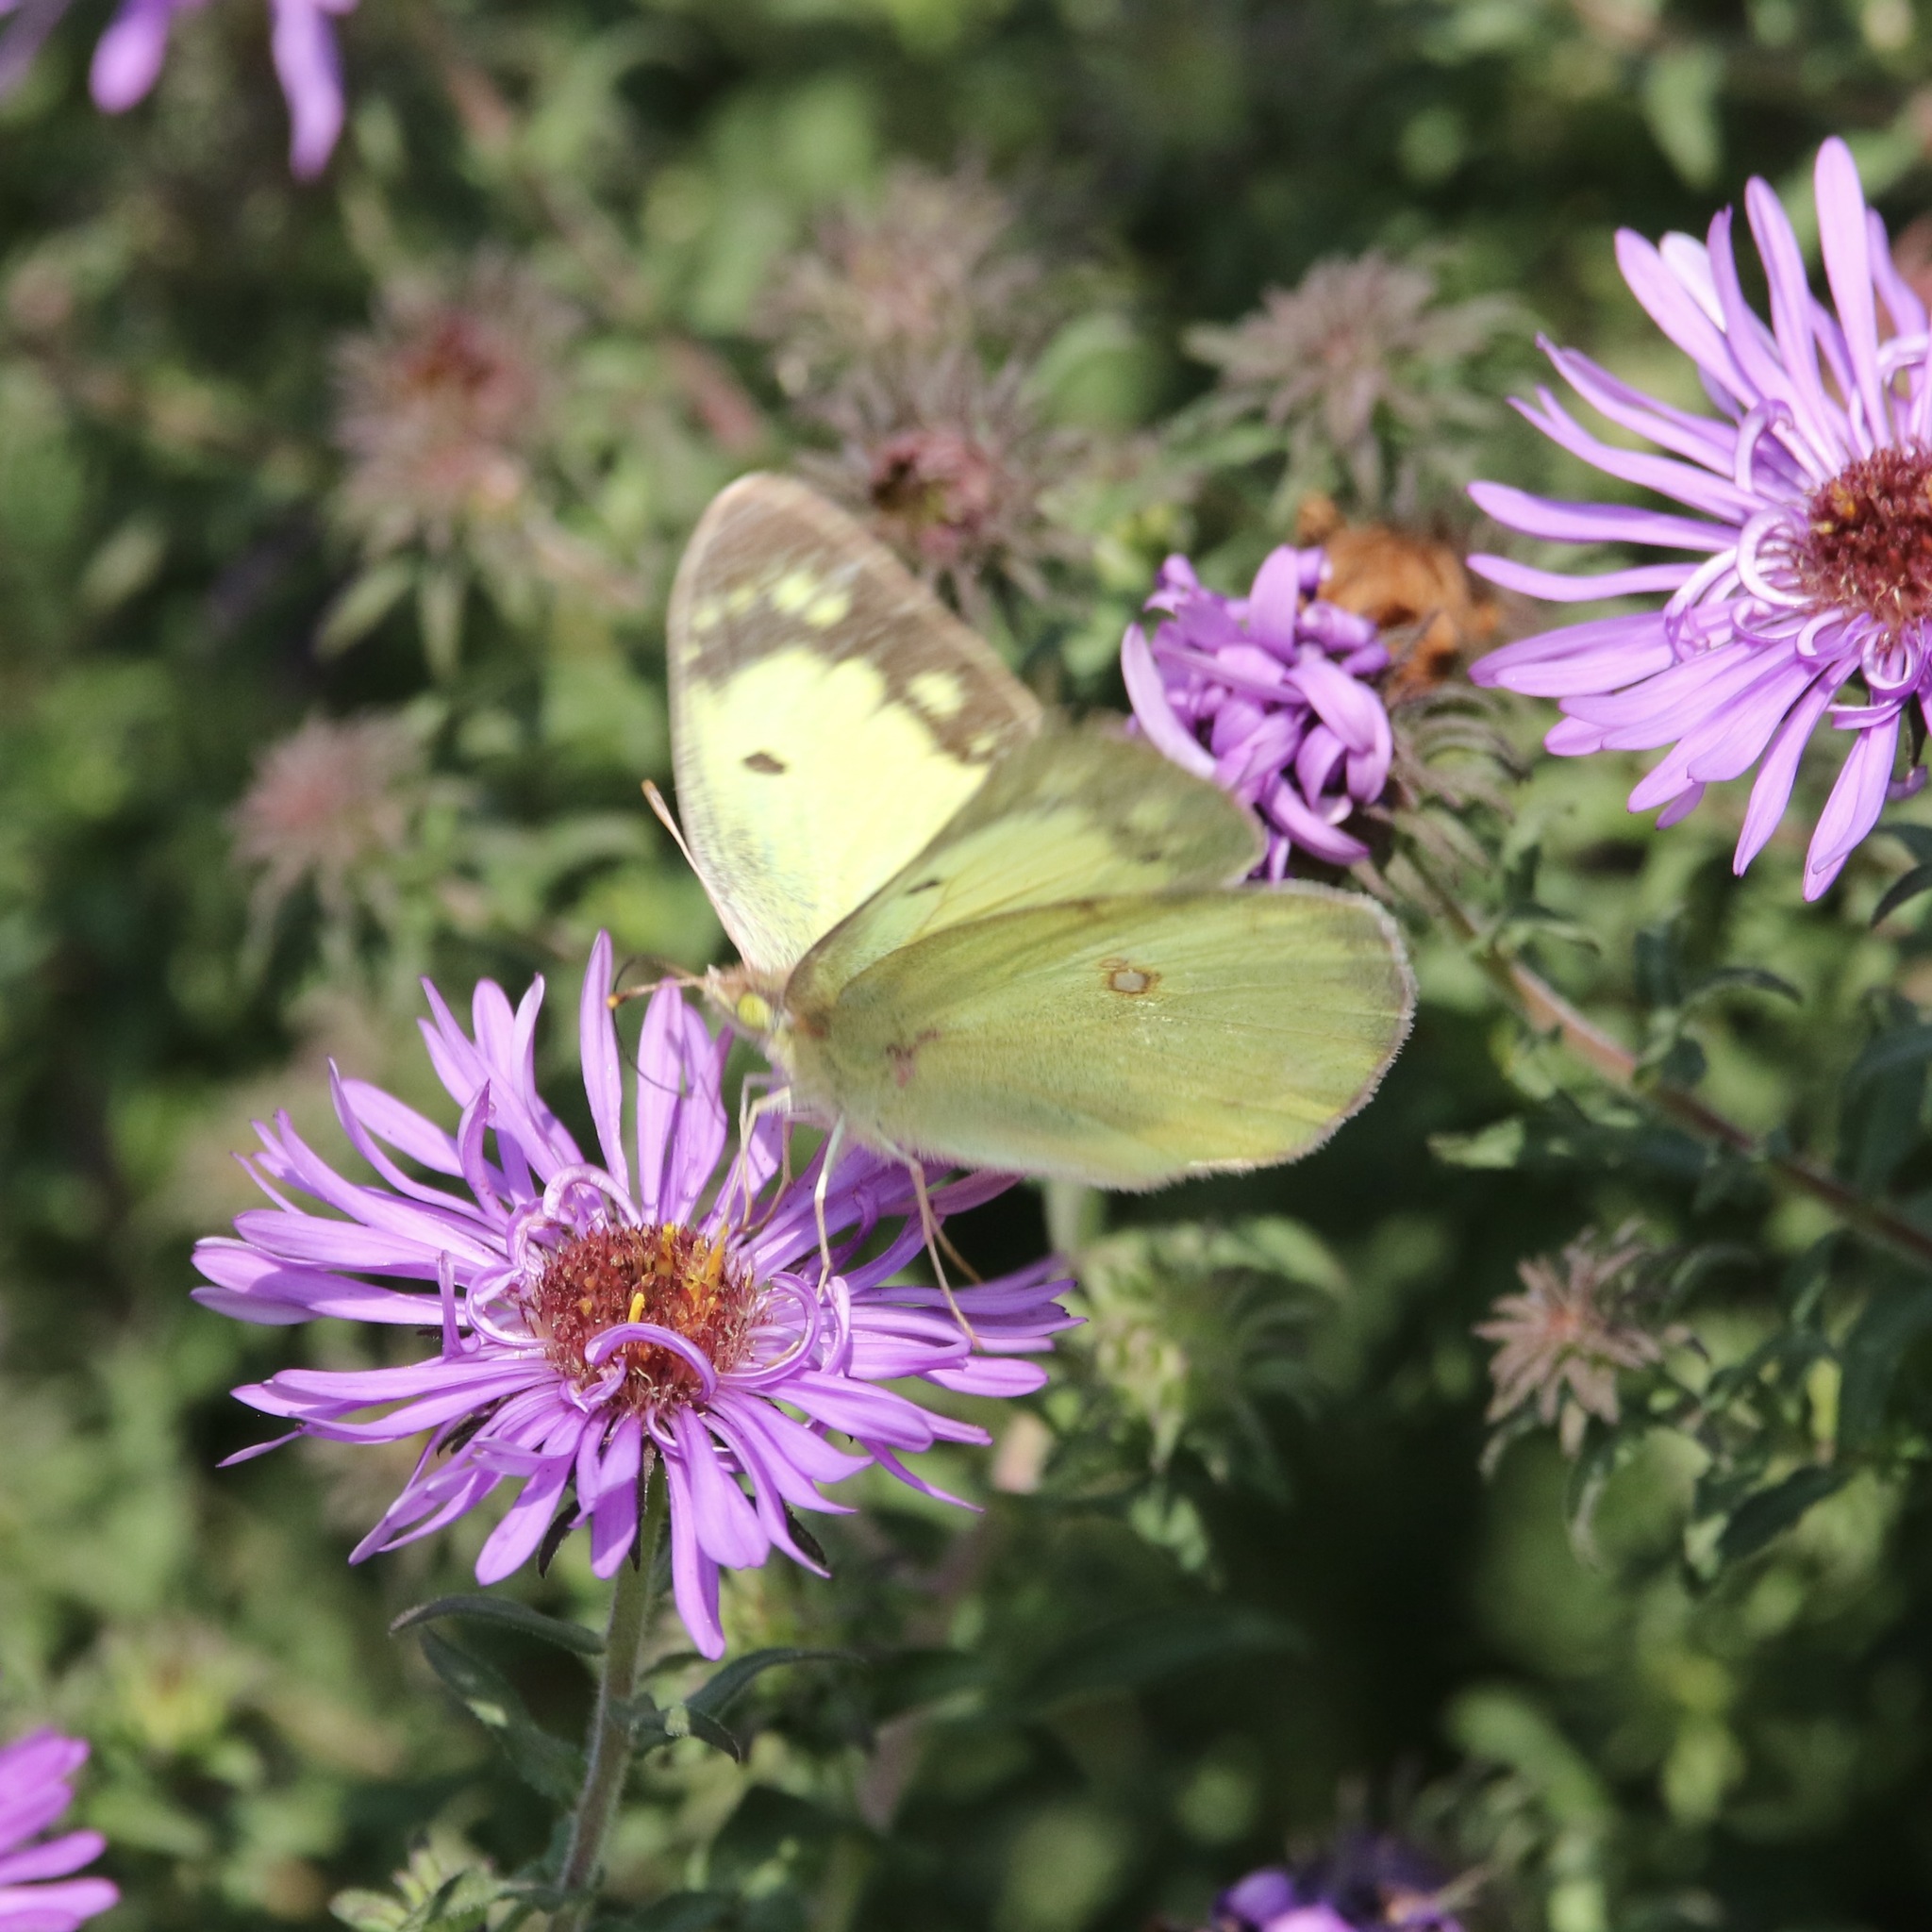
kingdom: Animalia
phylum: Arthropoda
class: Insecta
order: Lepidoptera
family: Pieridae
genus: Colias
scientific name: Colias philodice
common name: Clouded sulphur
